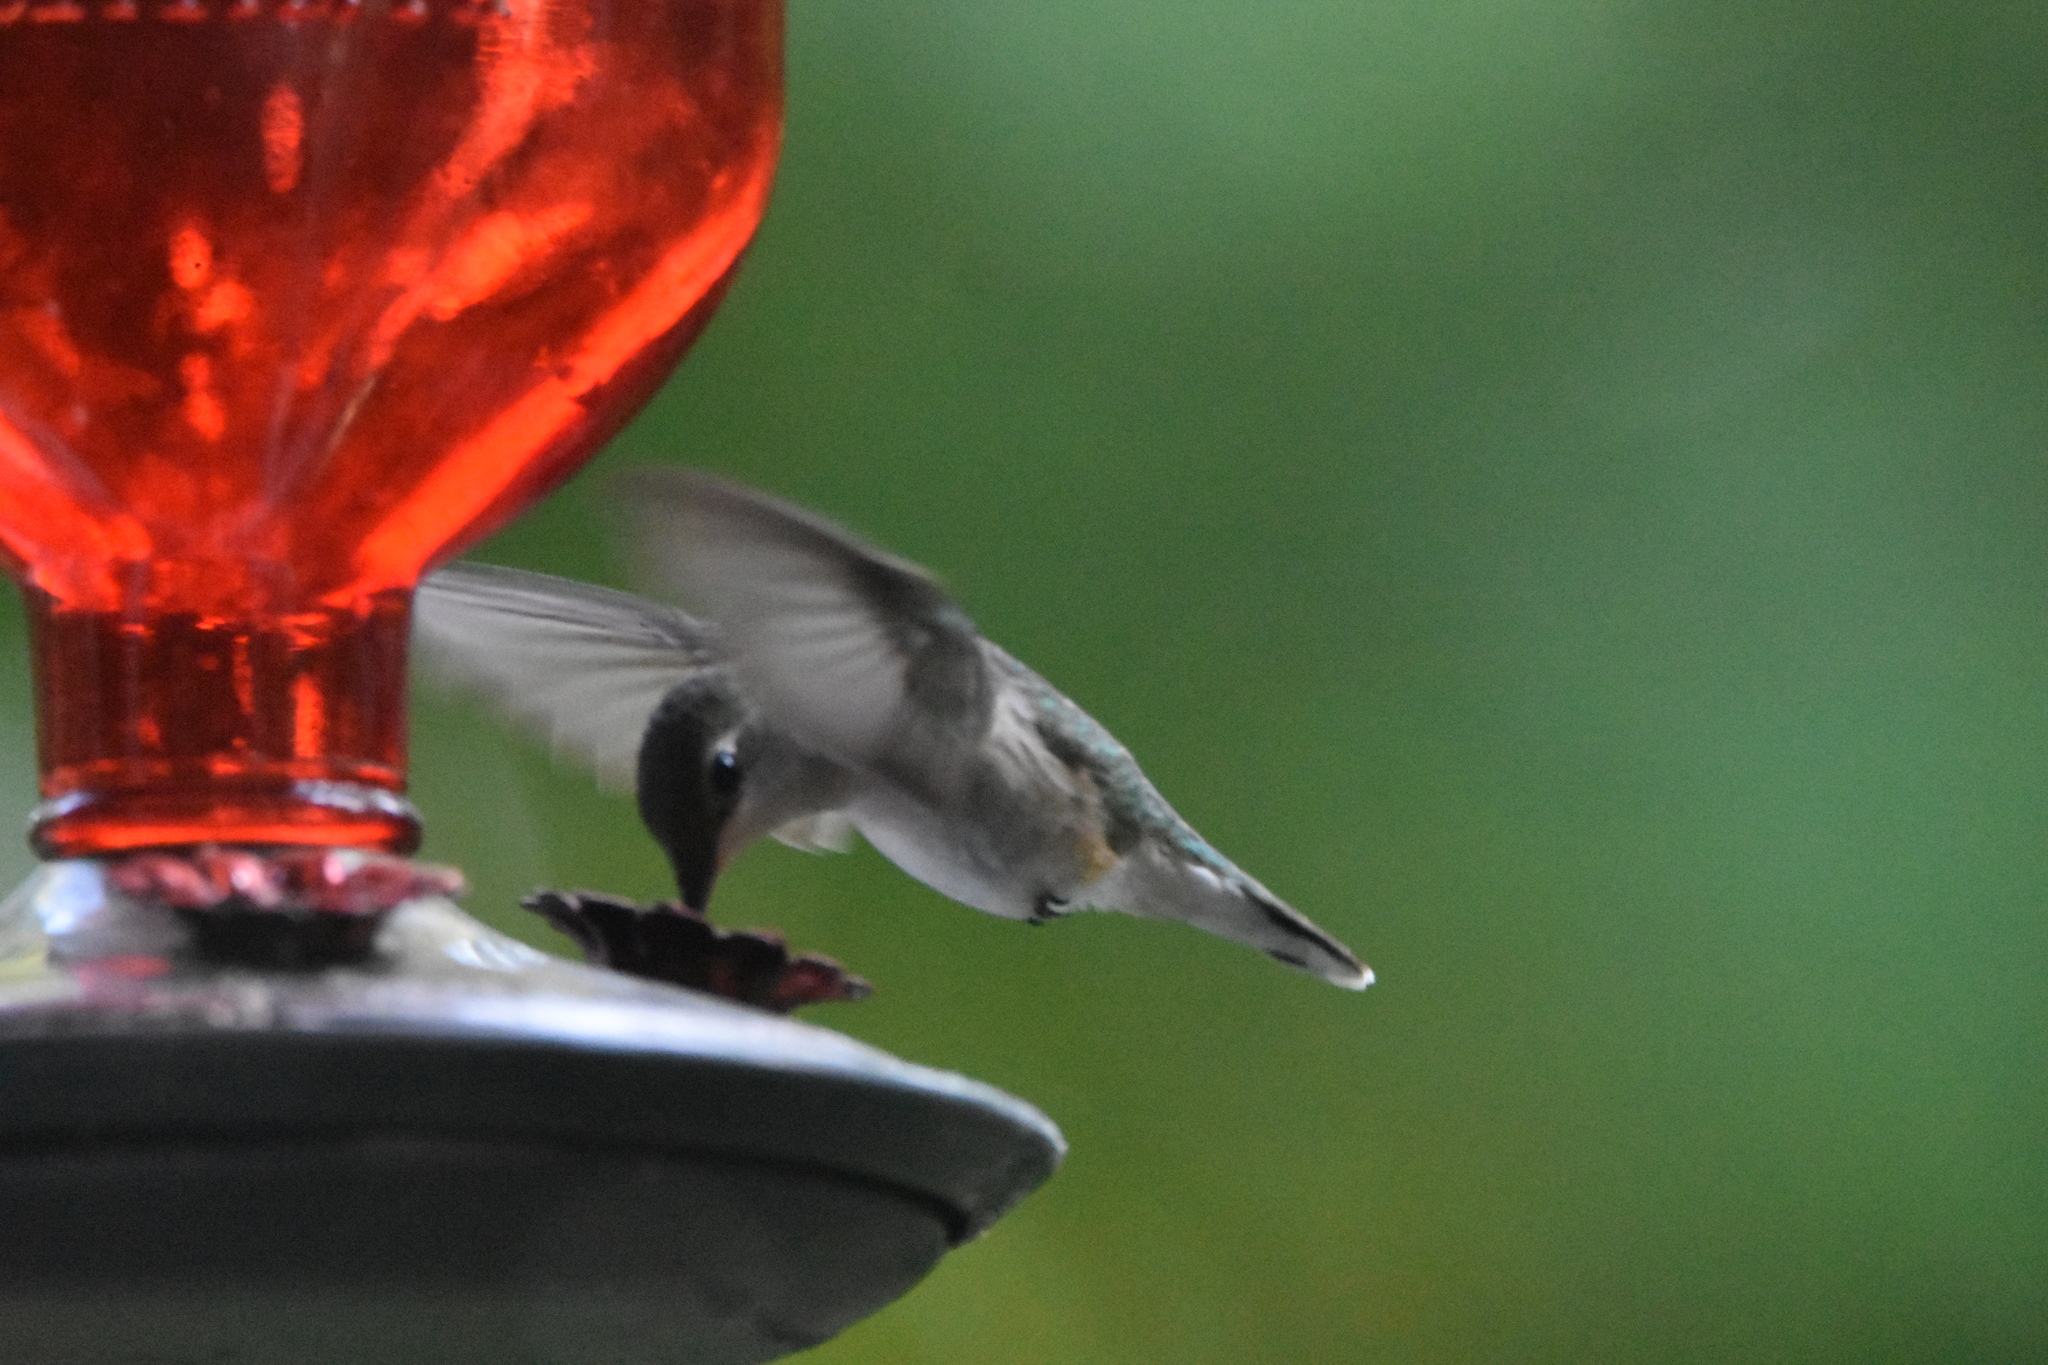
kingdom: Animalia
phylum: Chordata
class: Aves
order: Apodiformes
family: Trochilidae
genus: Archilochus
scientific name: Archilochus colubris
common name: Ruby-throated hummingbird
